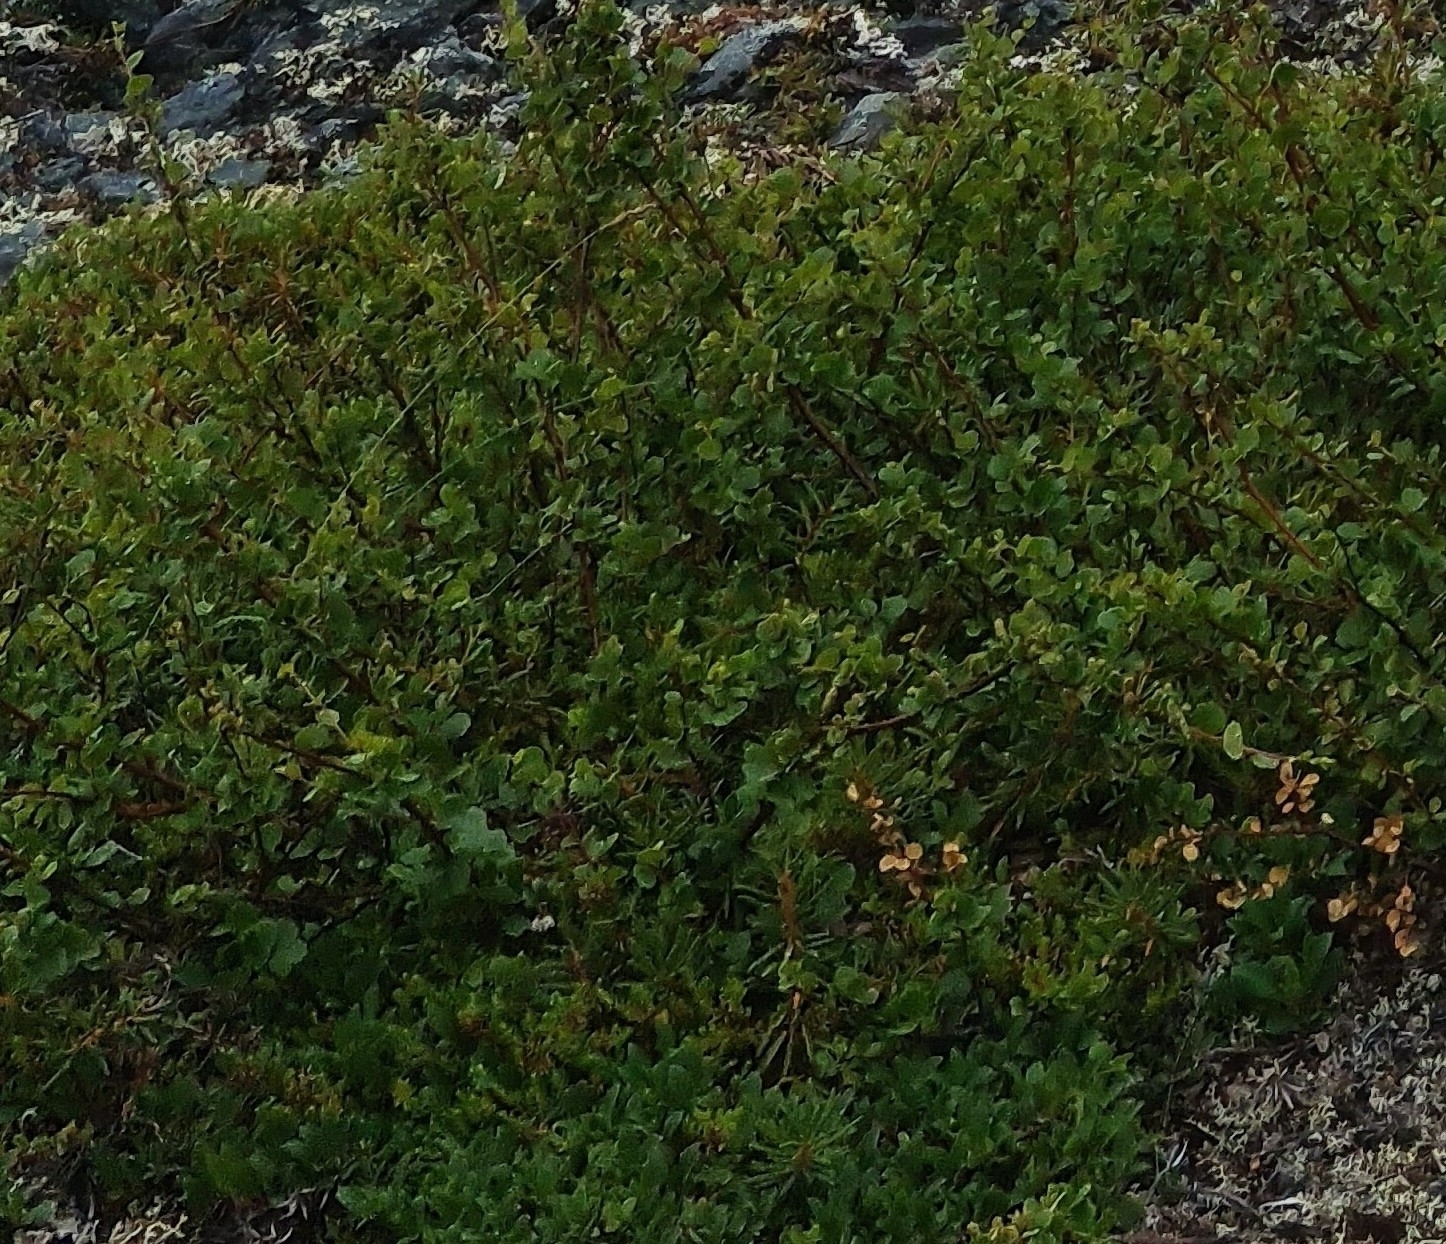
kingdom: Plantae
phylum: Tracheophyta
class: Magnoliopsida
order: Fagales
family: Betulaceae
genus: Betula
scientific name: Betula nana
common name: Arctic dwarf birch
